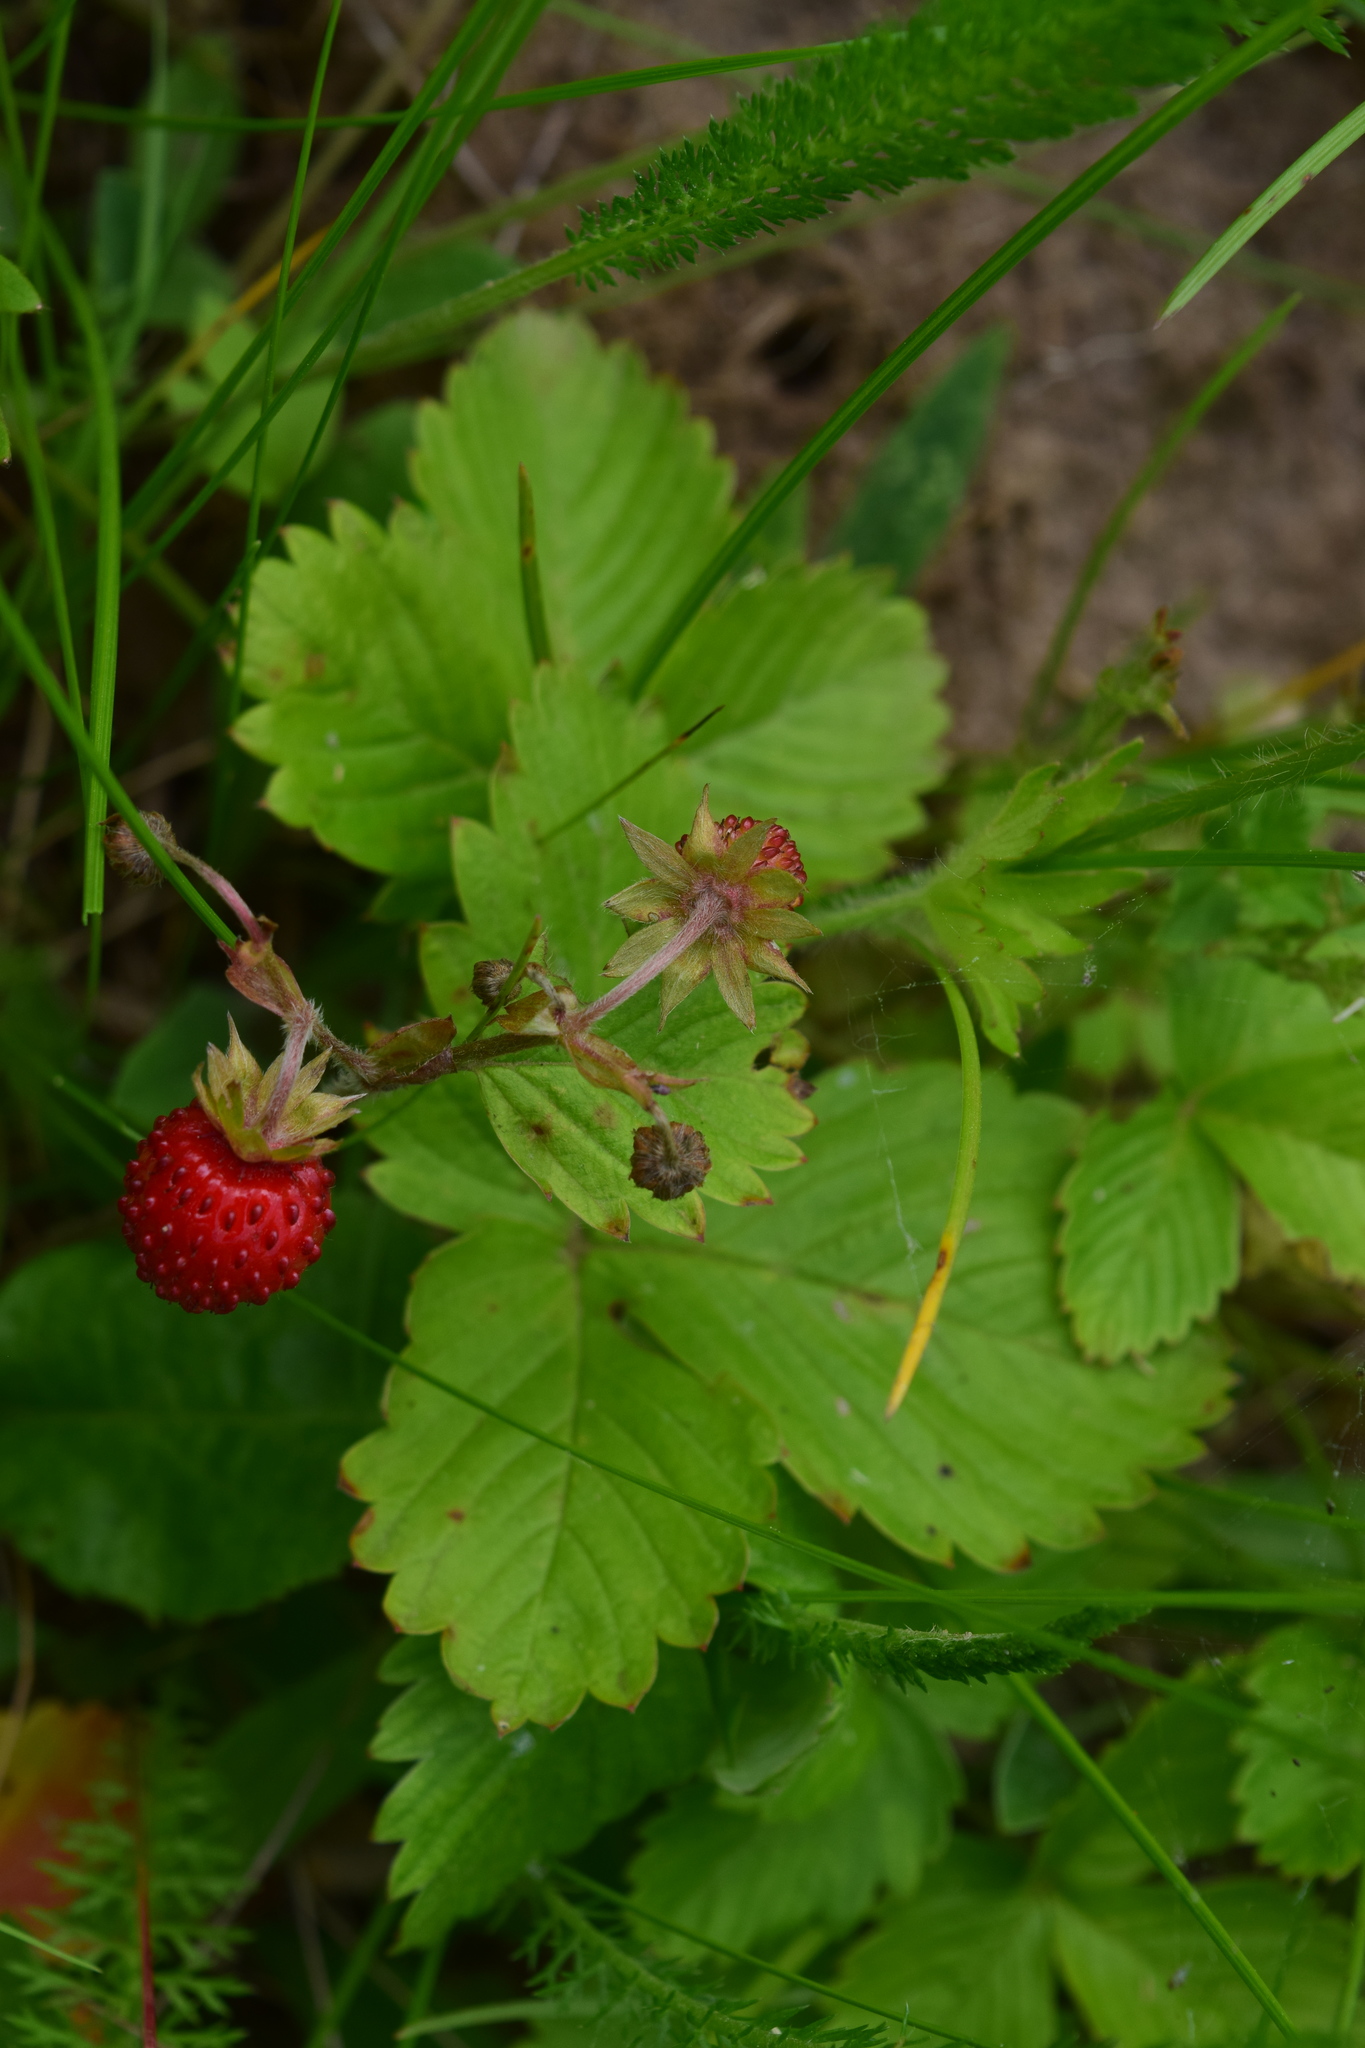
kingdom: Plantae
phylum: Tracheophyta
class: Magnoliopsida
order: Rosales
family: Rosaceae
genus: Fragaria
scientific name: Fragaria vesca
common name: Wild strawberry
